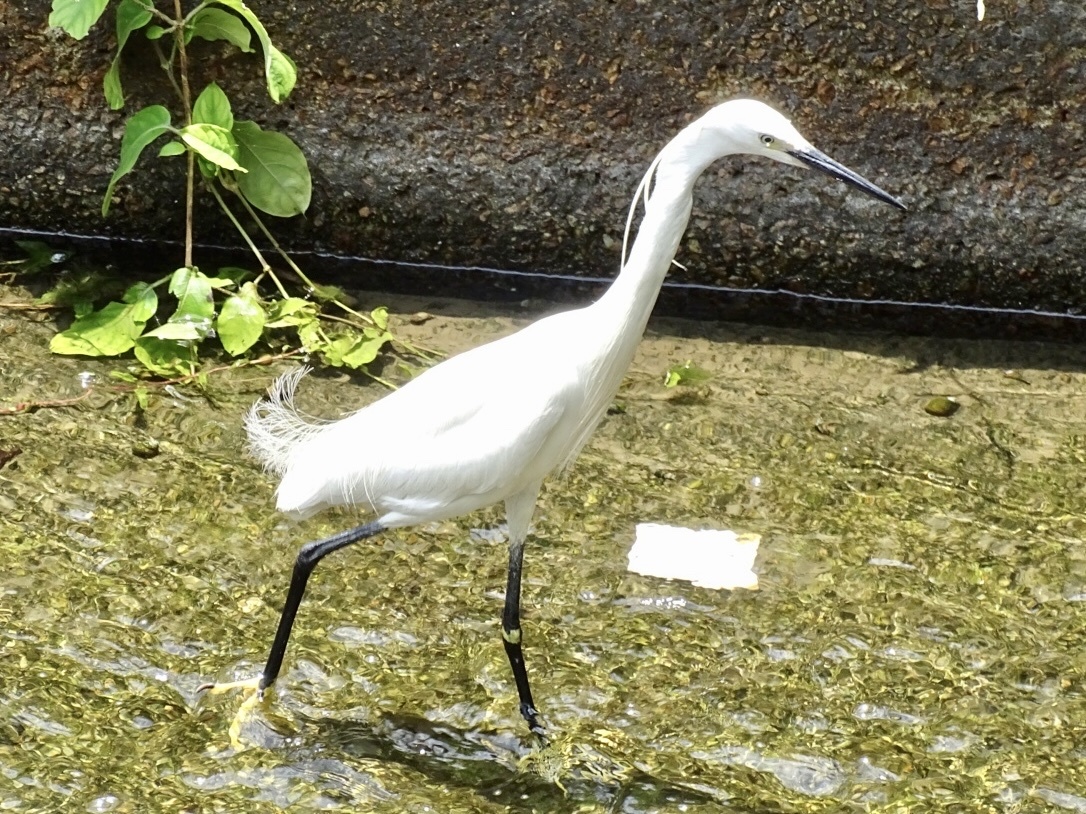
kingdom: Animalia
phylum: Chordata
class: Aves
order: Pelecaniformes
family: Ardeidae
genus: Egretta
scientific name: Egretta garzetta
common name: Little egret
